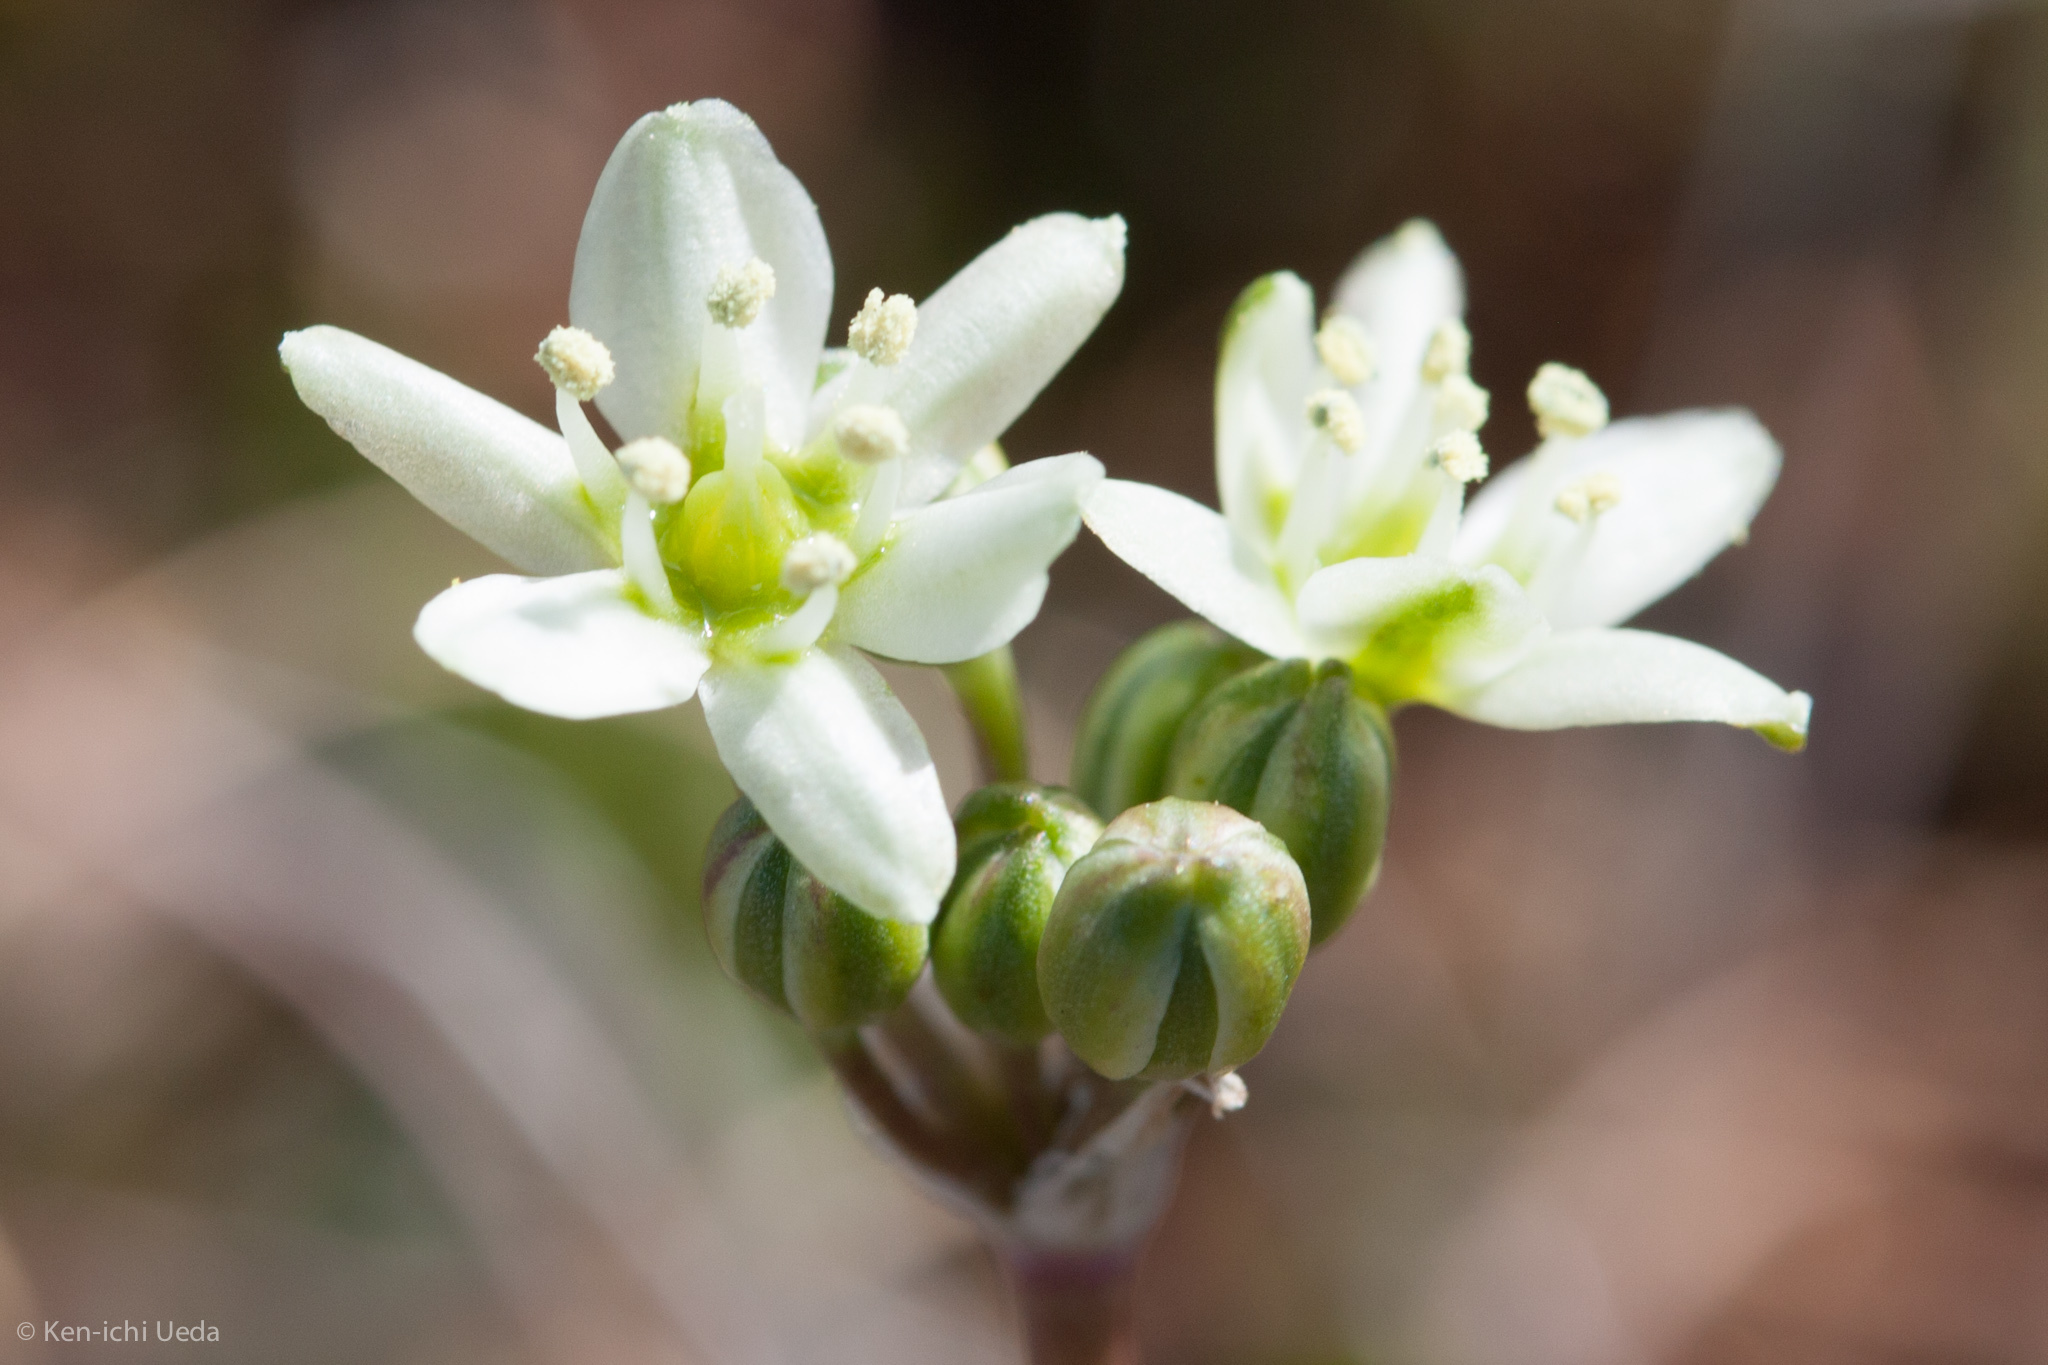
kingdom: Plantae
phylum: Tracheophyta
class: Liliopsida
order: Asparagales
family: Asparagaceae
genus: Muilla
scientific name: Muilla maritima
